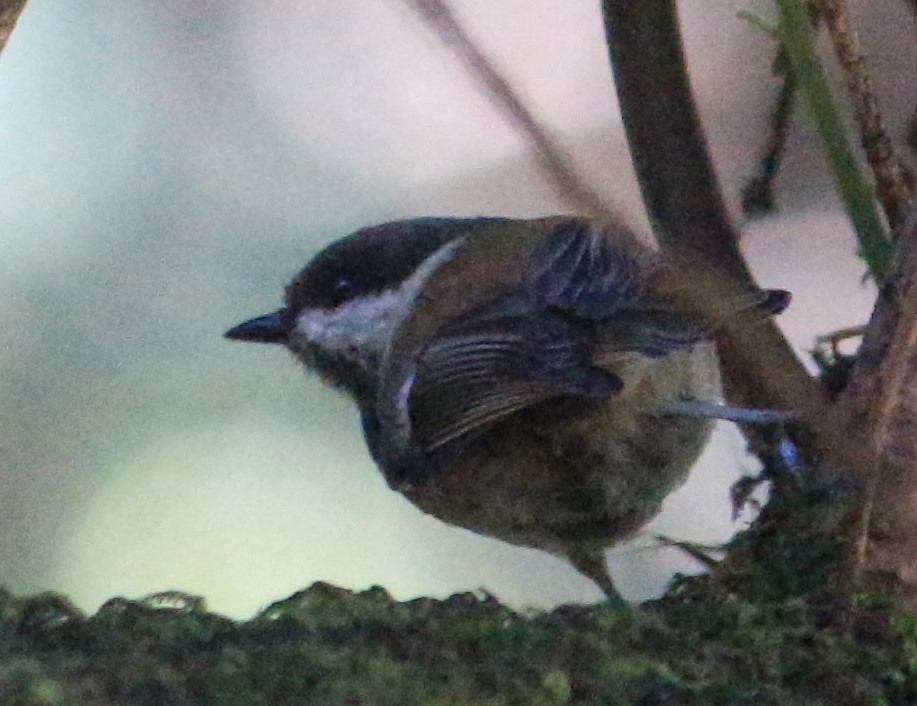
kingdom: Animalia
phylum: Chordata
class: Aves
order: Passeriformes
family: Paridae
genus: Poecile
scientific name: Poecile rufescens
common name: Chestnut-backed chickadee
